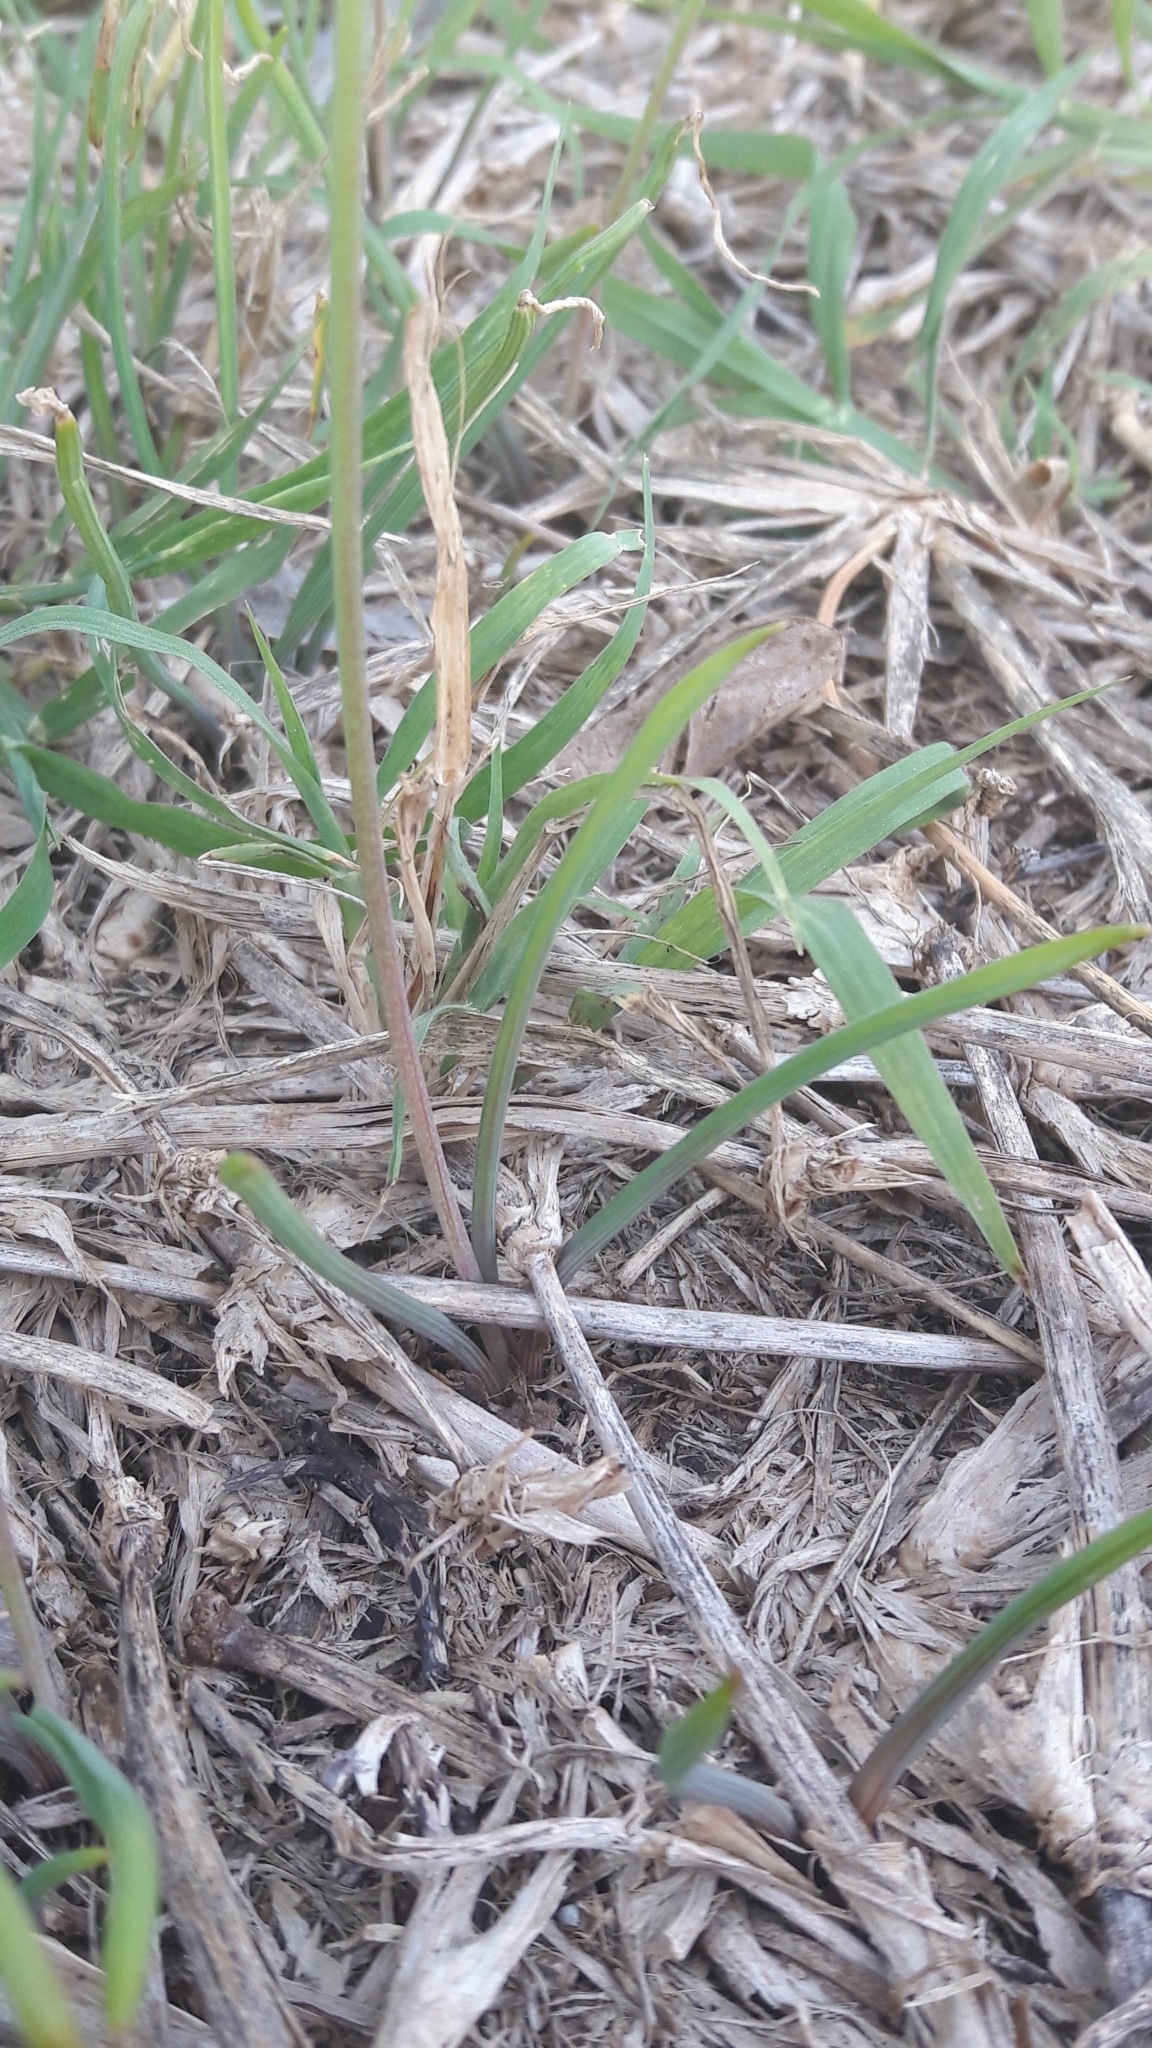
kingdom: Plantae
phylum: Tracheophyta
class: Liliopsida
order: Asparagales
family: Asparagaceae
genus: Muscari
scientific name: Muscari parviflorum
